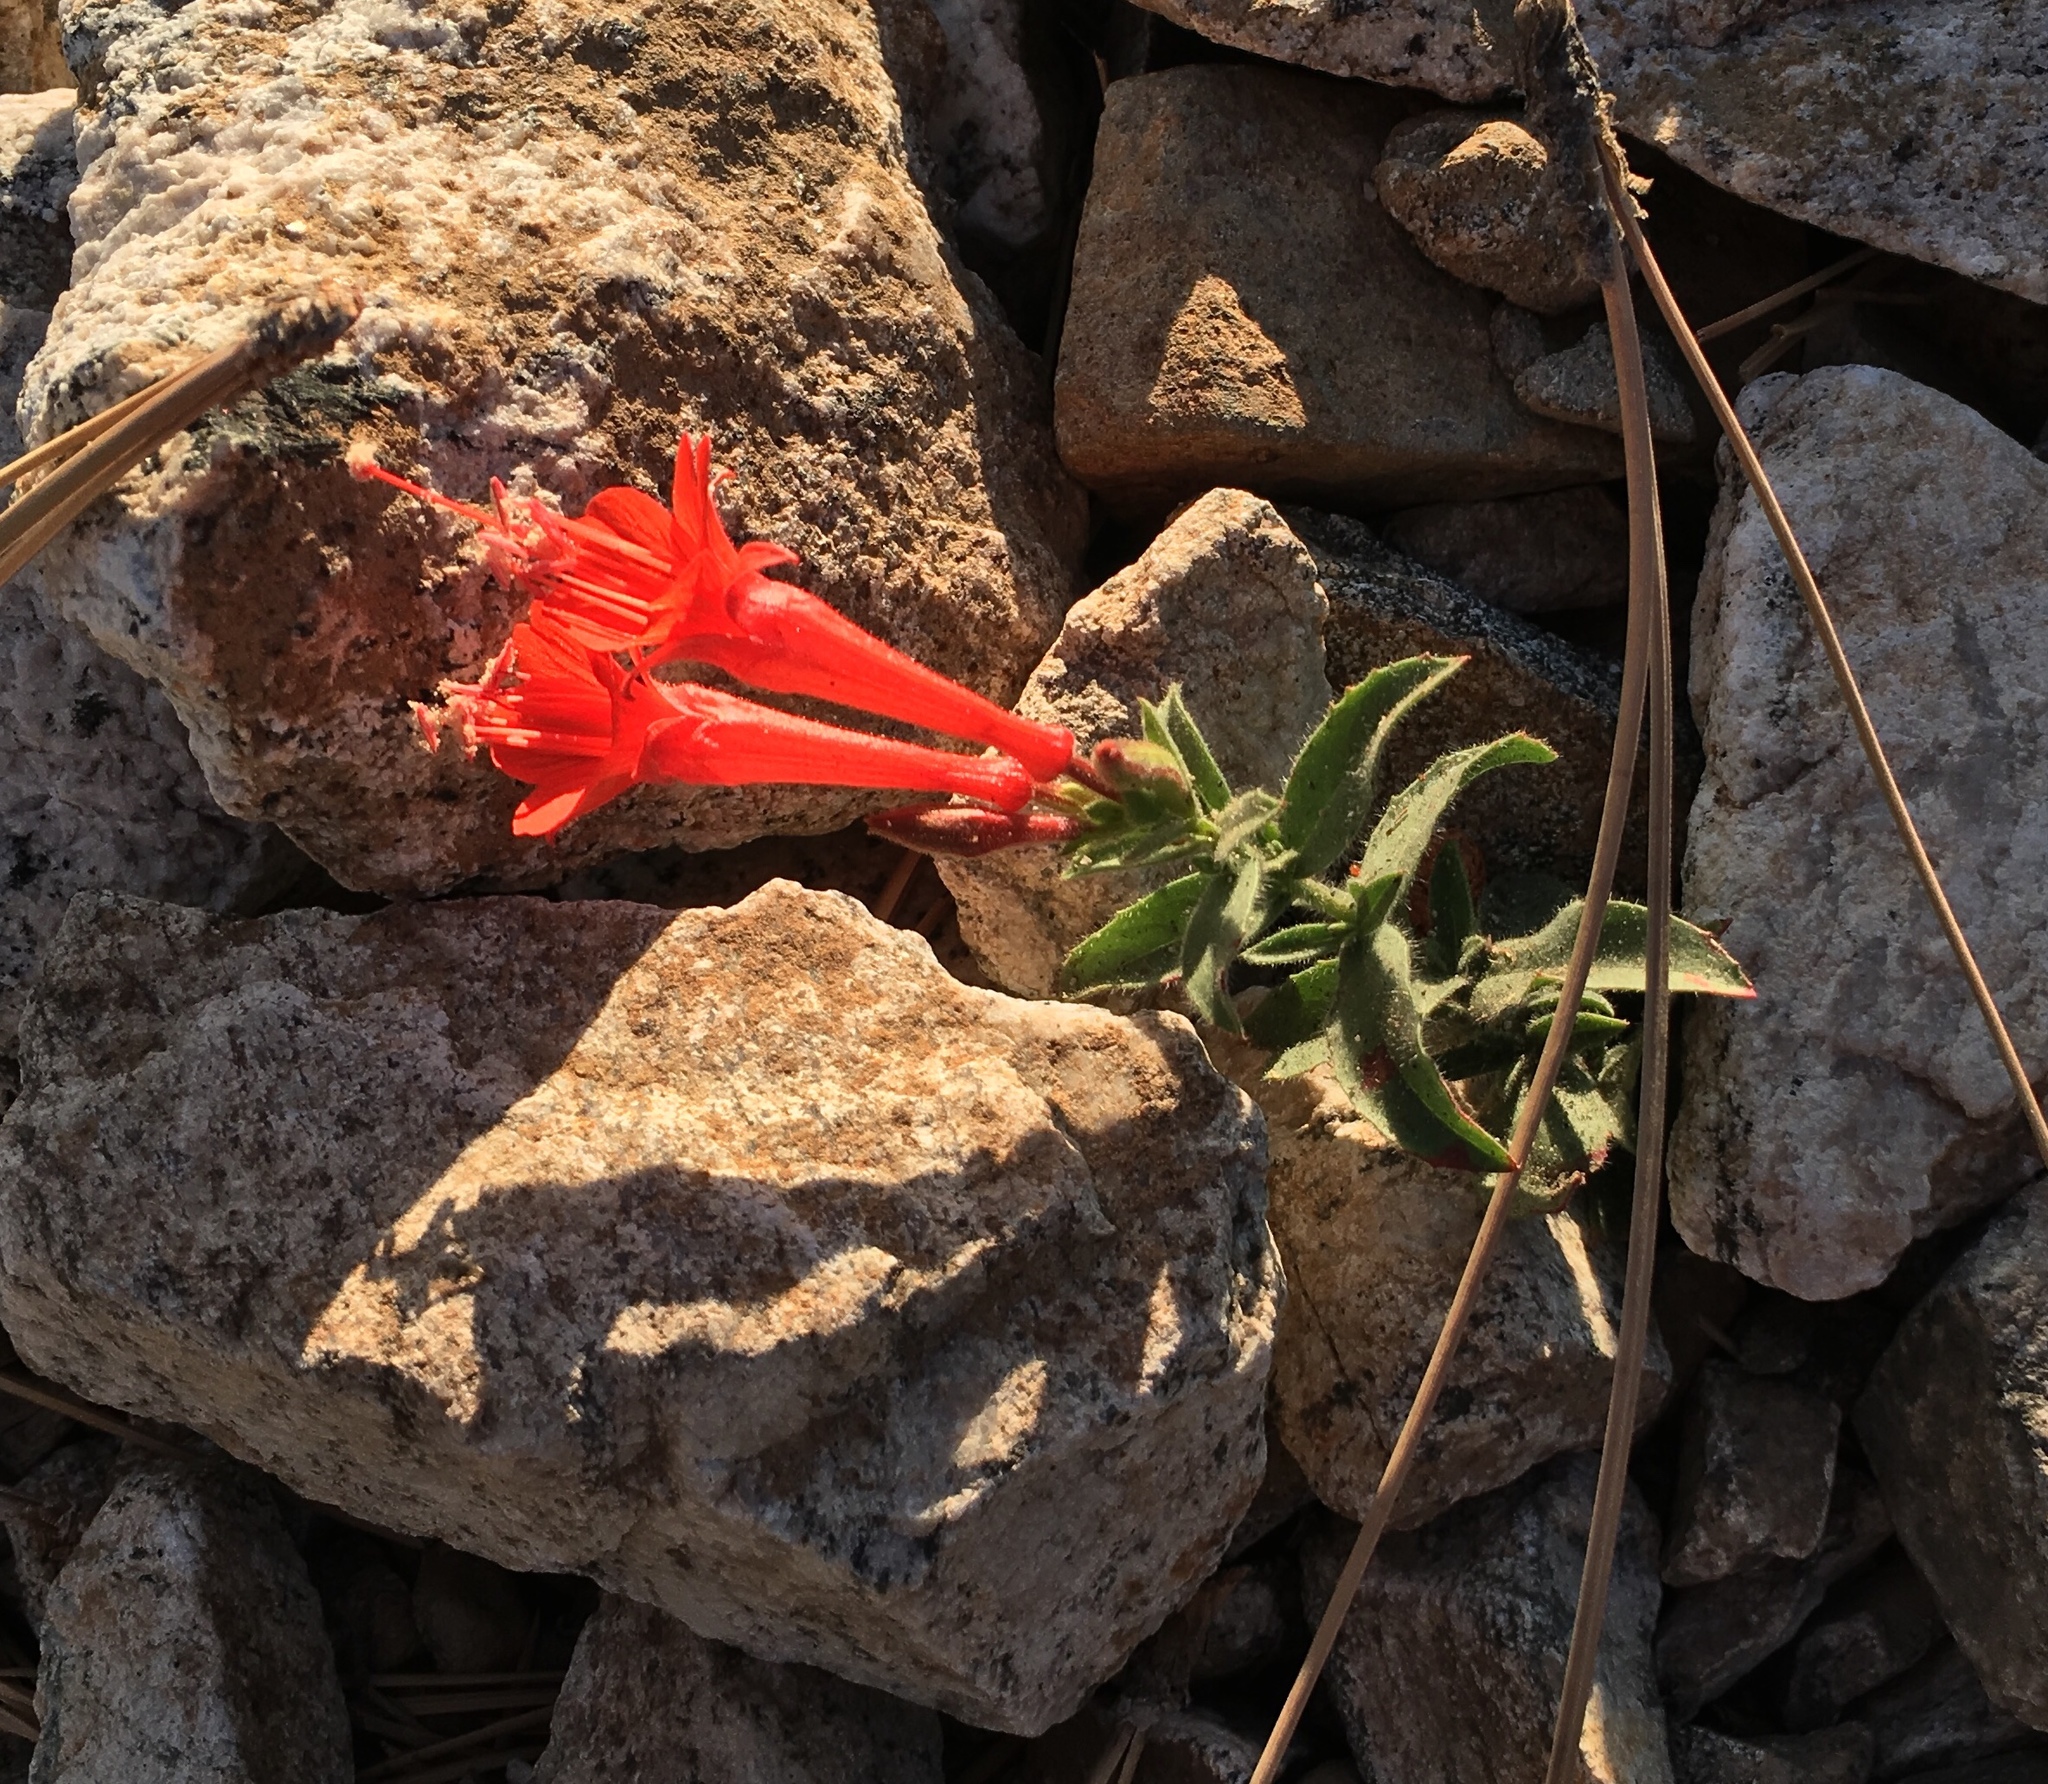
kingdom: Plantae
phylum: Tracheophyta
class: Magnoliopsida
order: Myrtales
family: Onagraceae
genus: Epilobium
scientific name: Epilobium canum
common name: California-fuchsia
